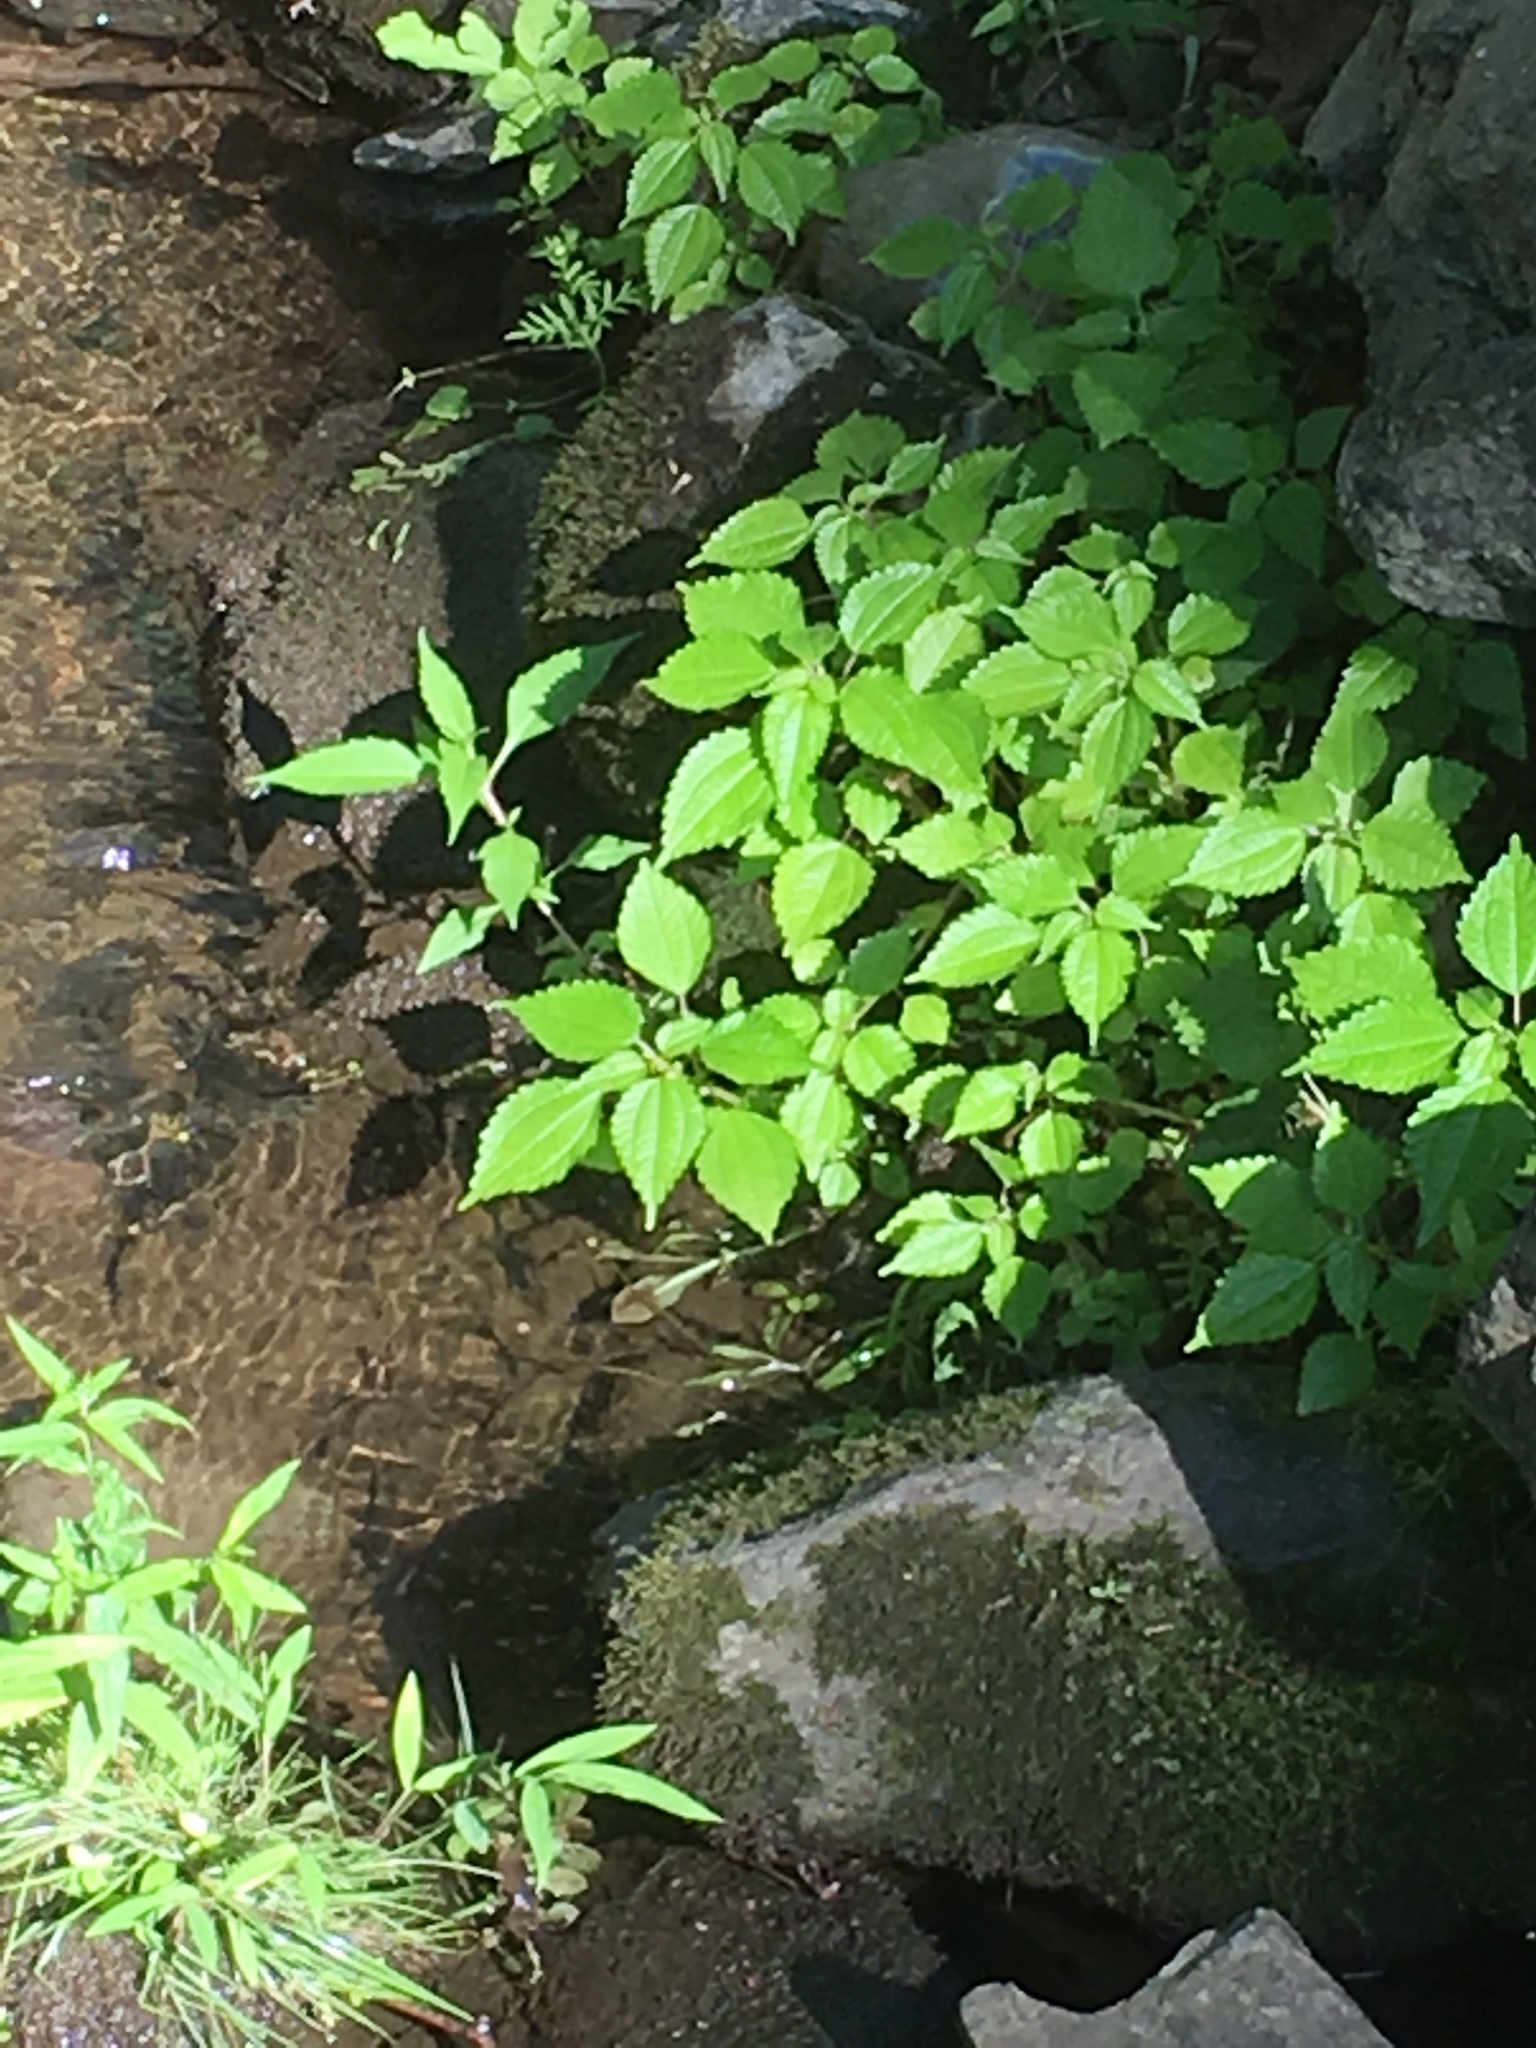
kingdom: Plantae
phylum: Tracheophyta
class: Magnoliopsida
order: Rosales
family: Urticaceae
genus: Pilea
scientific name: Pilea pumila
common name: Clearweed
